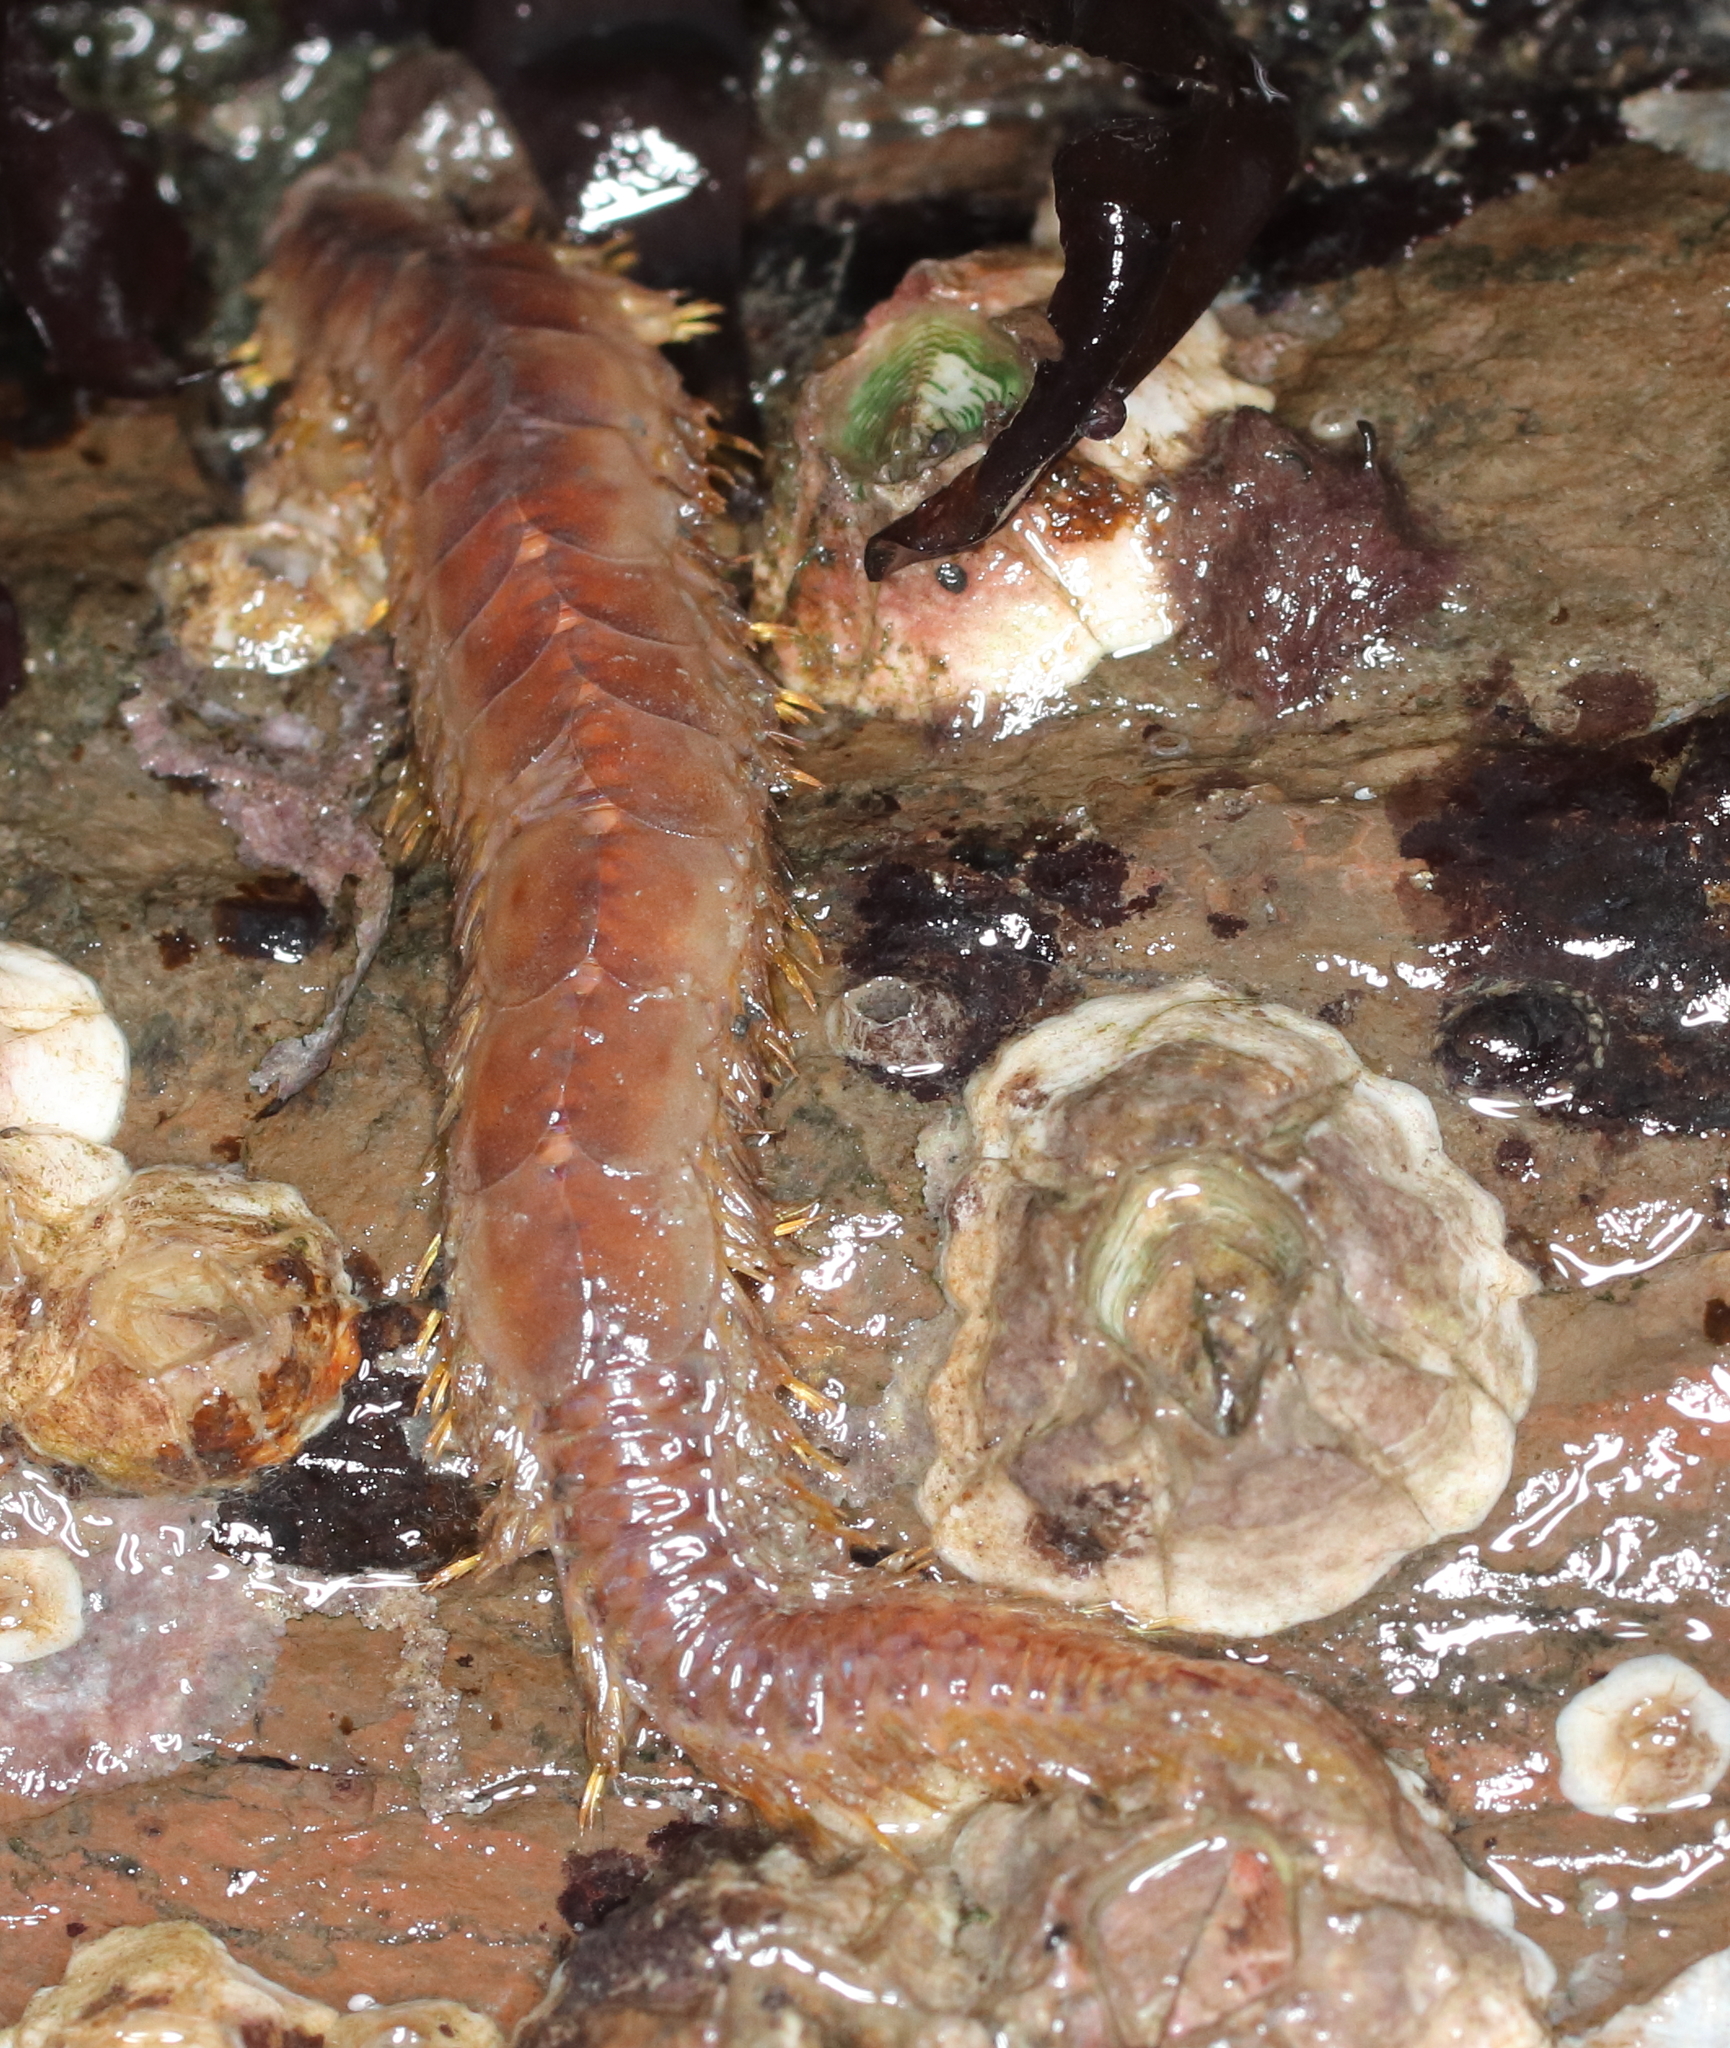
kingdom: Animalia
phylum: Annelida
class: Polychaeta
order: Phyllodocida
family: Polynoidae
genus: Hermadionella
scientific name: Hermadionella truncata
